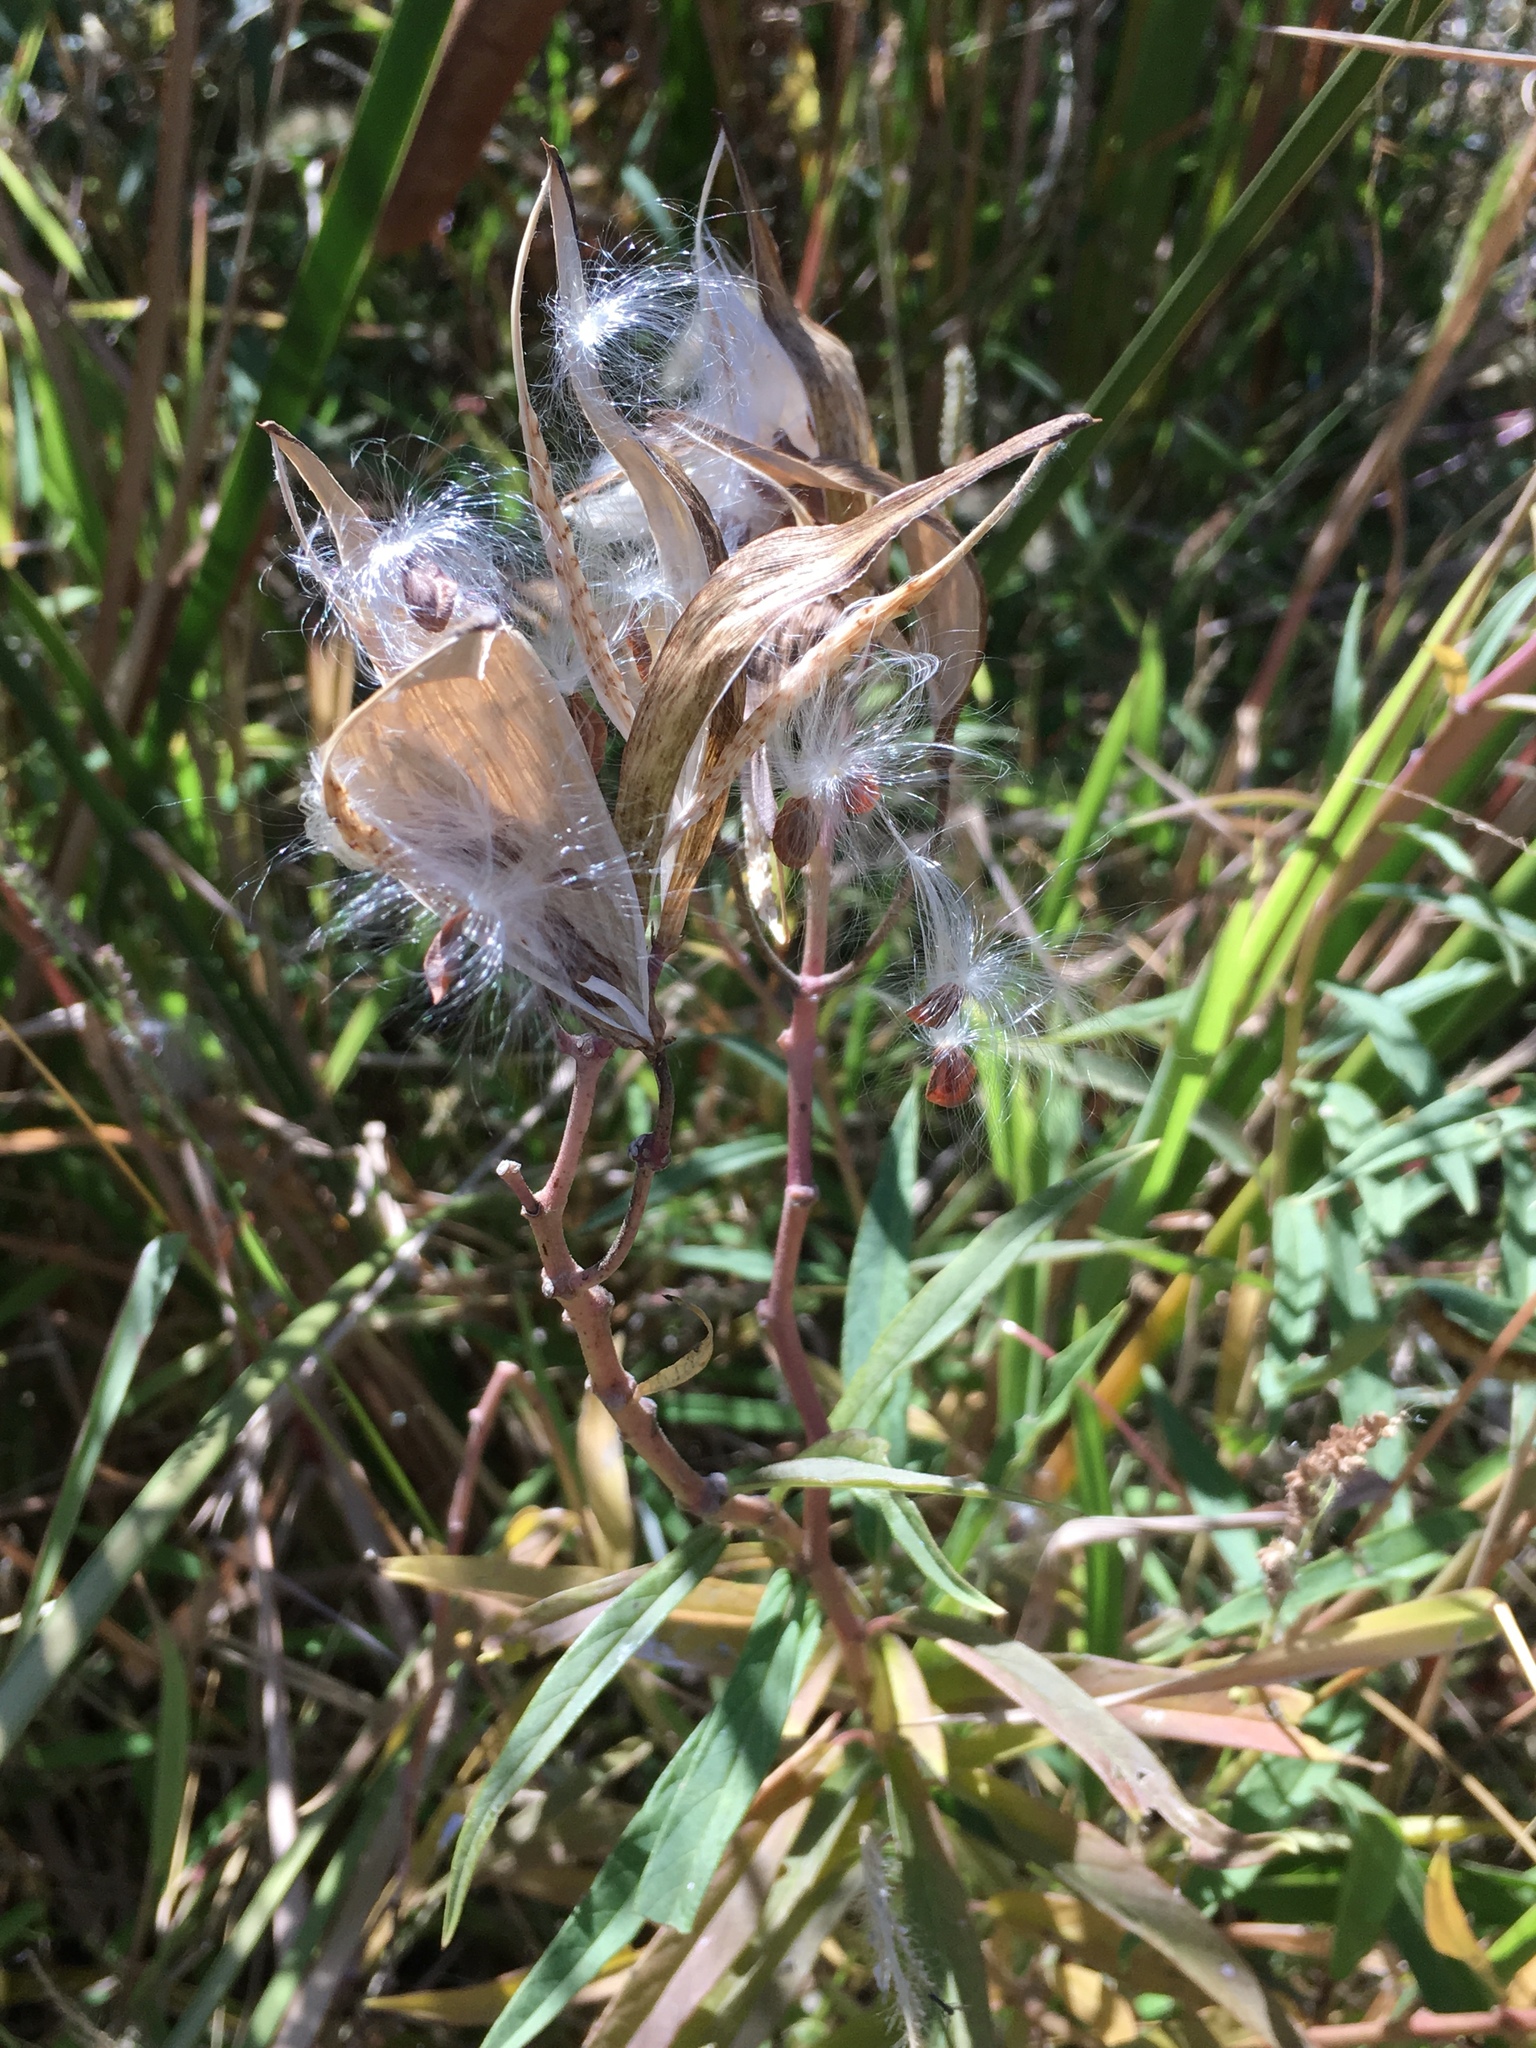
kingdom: Plantae
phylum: Tracheophyta
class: Magnoliopsida
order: Gentianales
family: Apocynaceae
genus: Asclepias
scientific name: Asclepias incarnata
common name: Swamp milkweed
